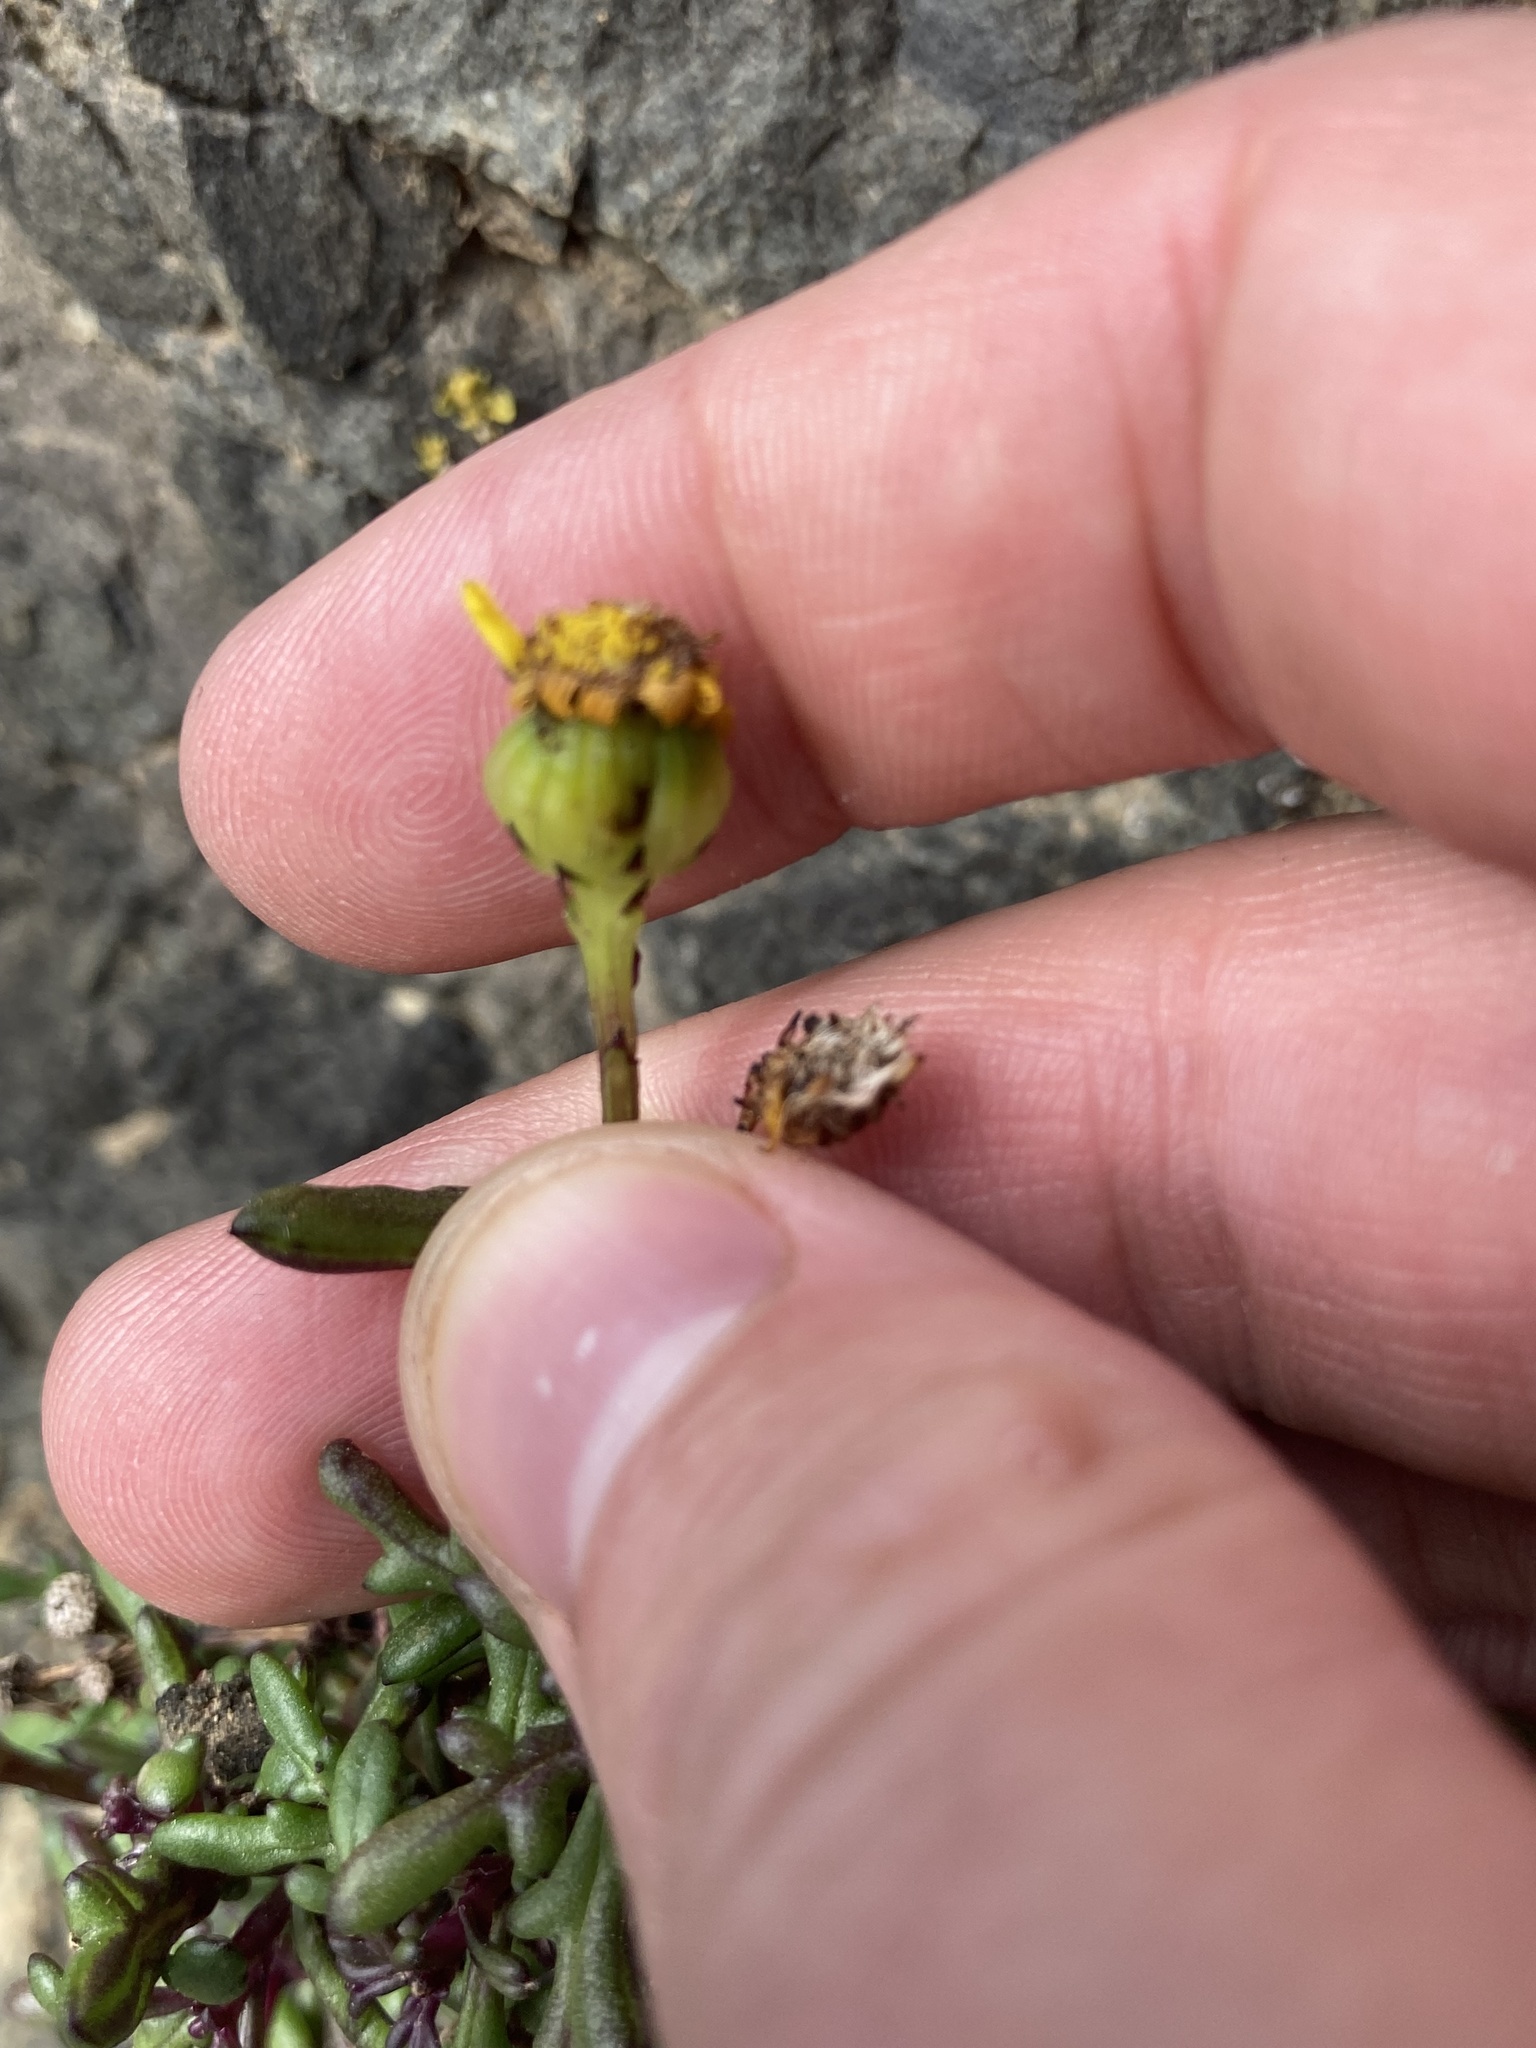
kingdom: Plantae
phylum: Tracheophyta
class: Magnoliopsida
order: Asterales
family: Asteraceae
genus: Senecio
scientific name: Senecio lautus
